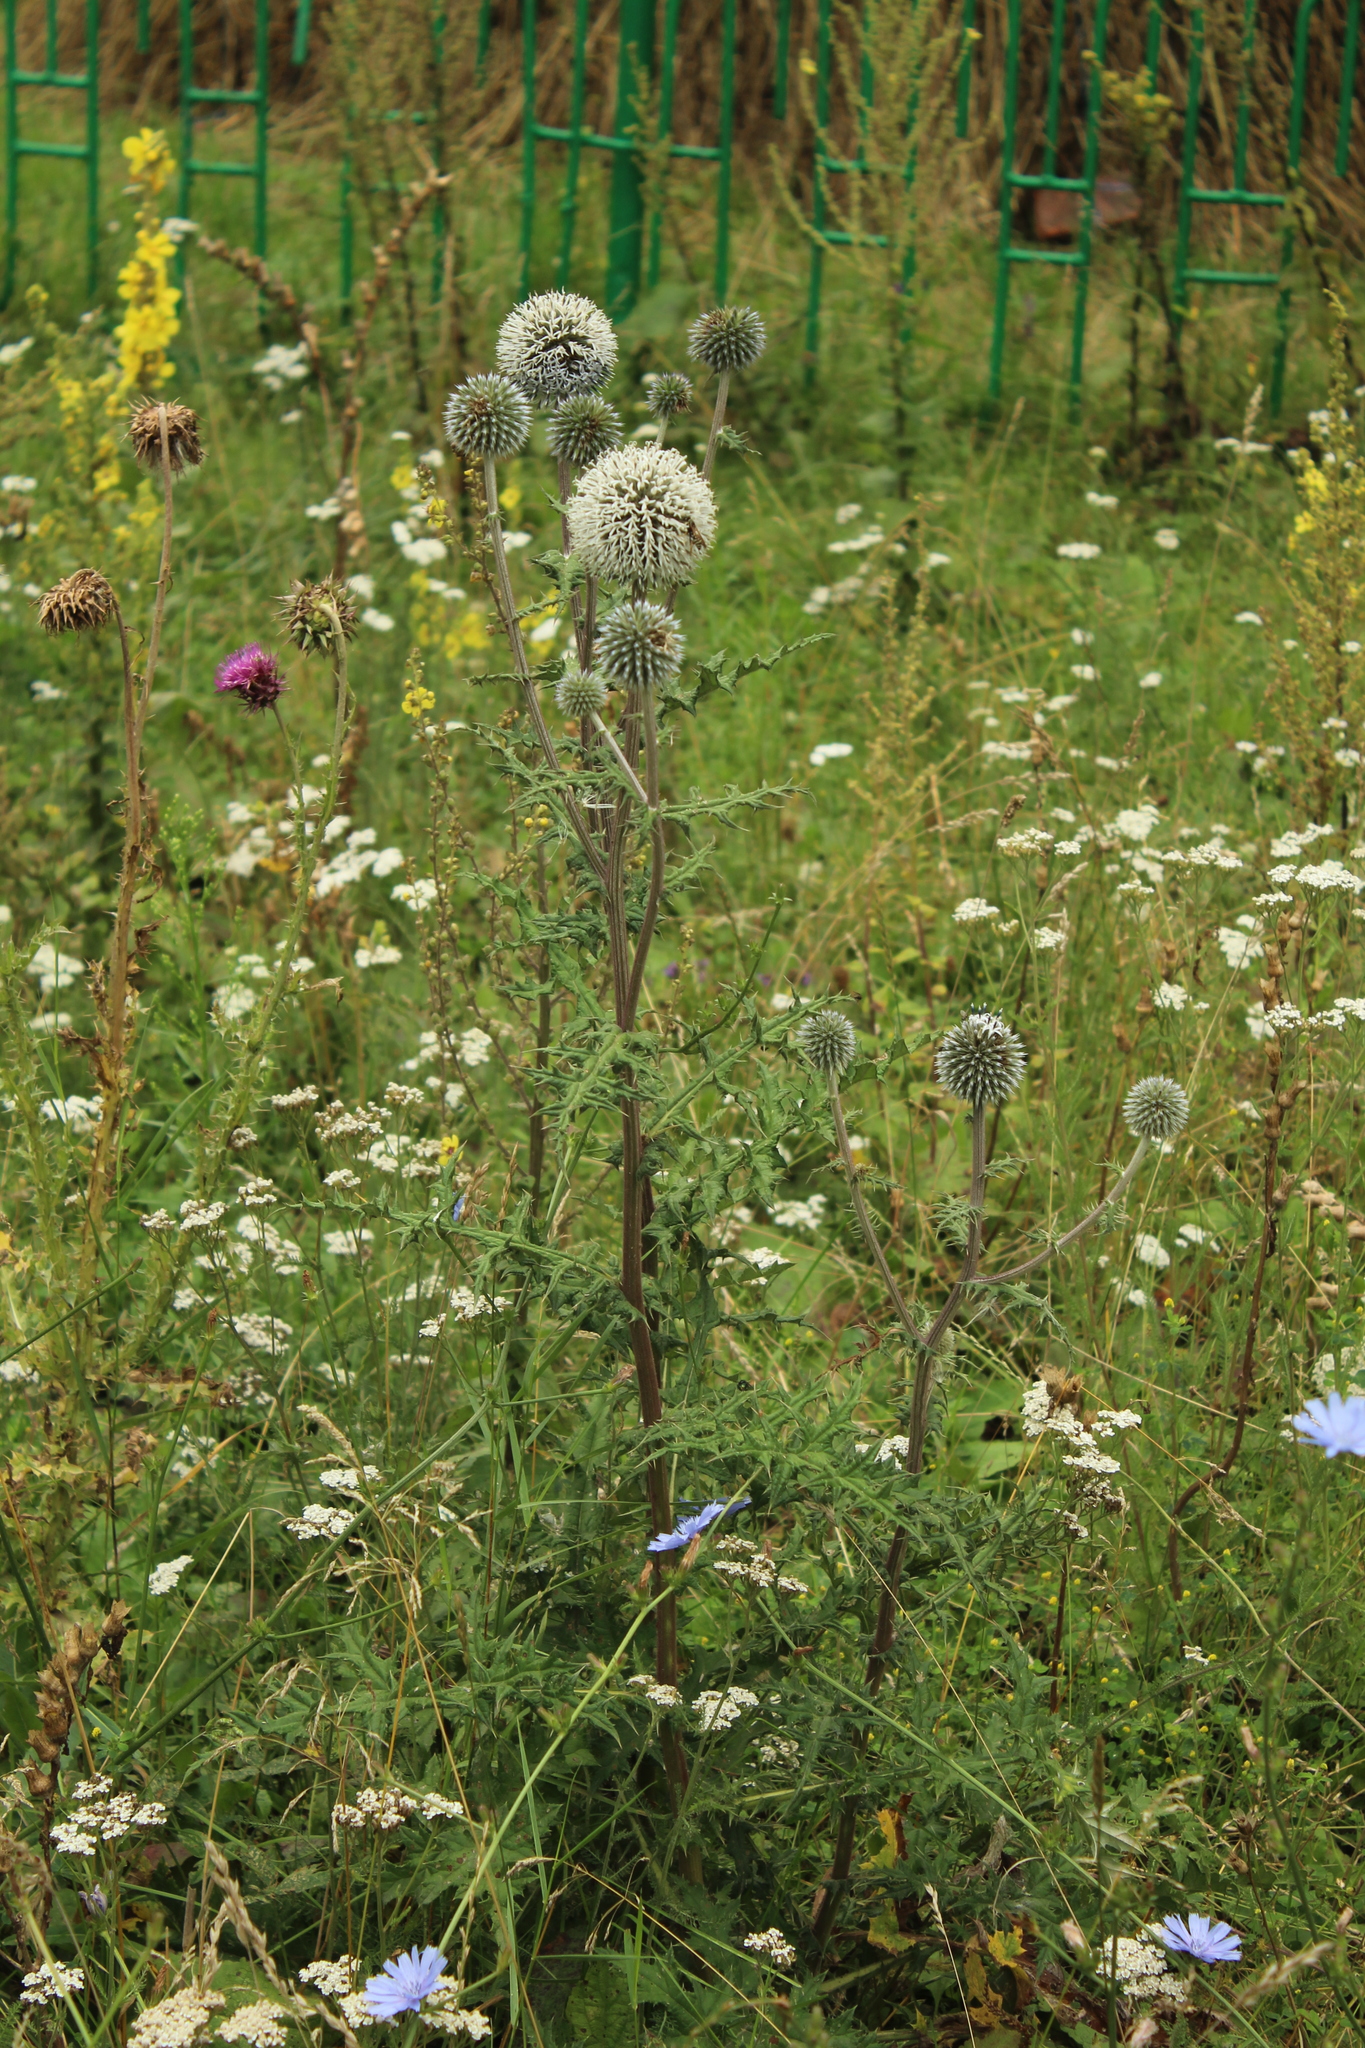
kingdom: Plantae
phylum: Tracheophyta
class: Magnoliopsida
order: Asterales
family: Asteraceae
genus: Echinops
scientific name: Echinops sphaerocephalus
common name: Glandular globe-thistle
